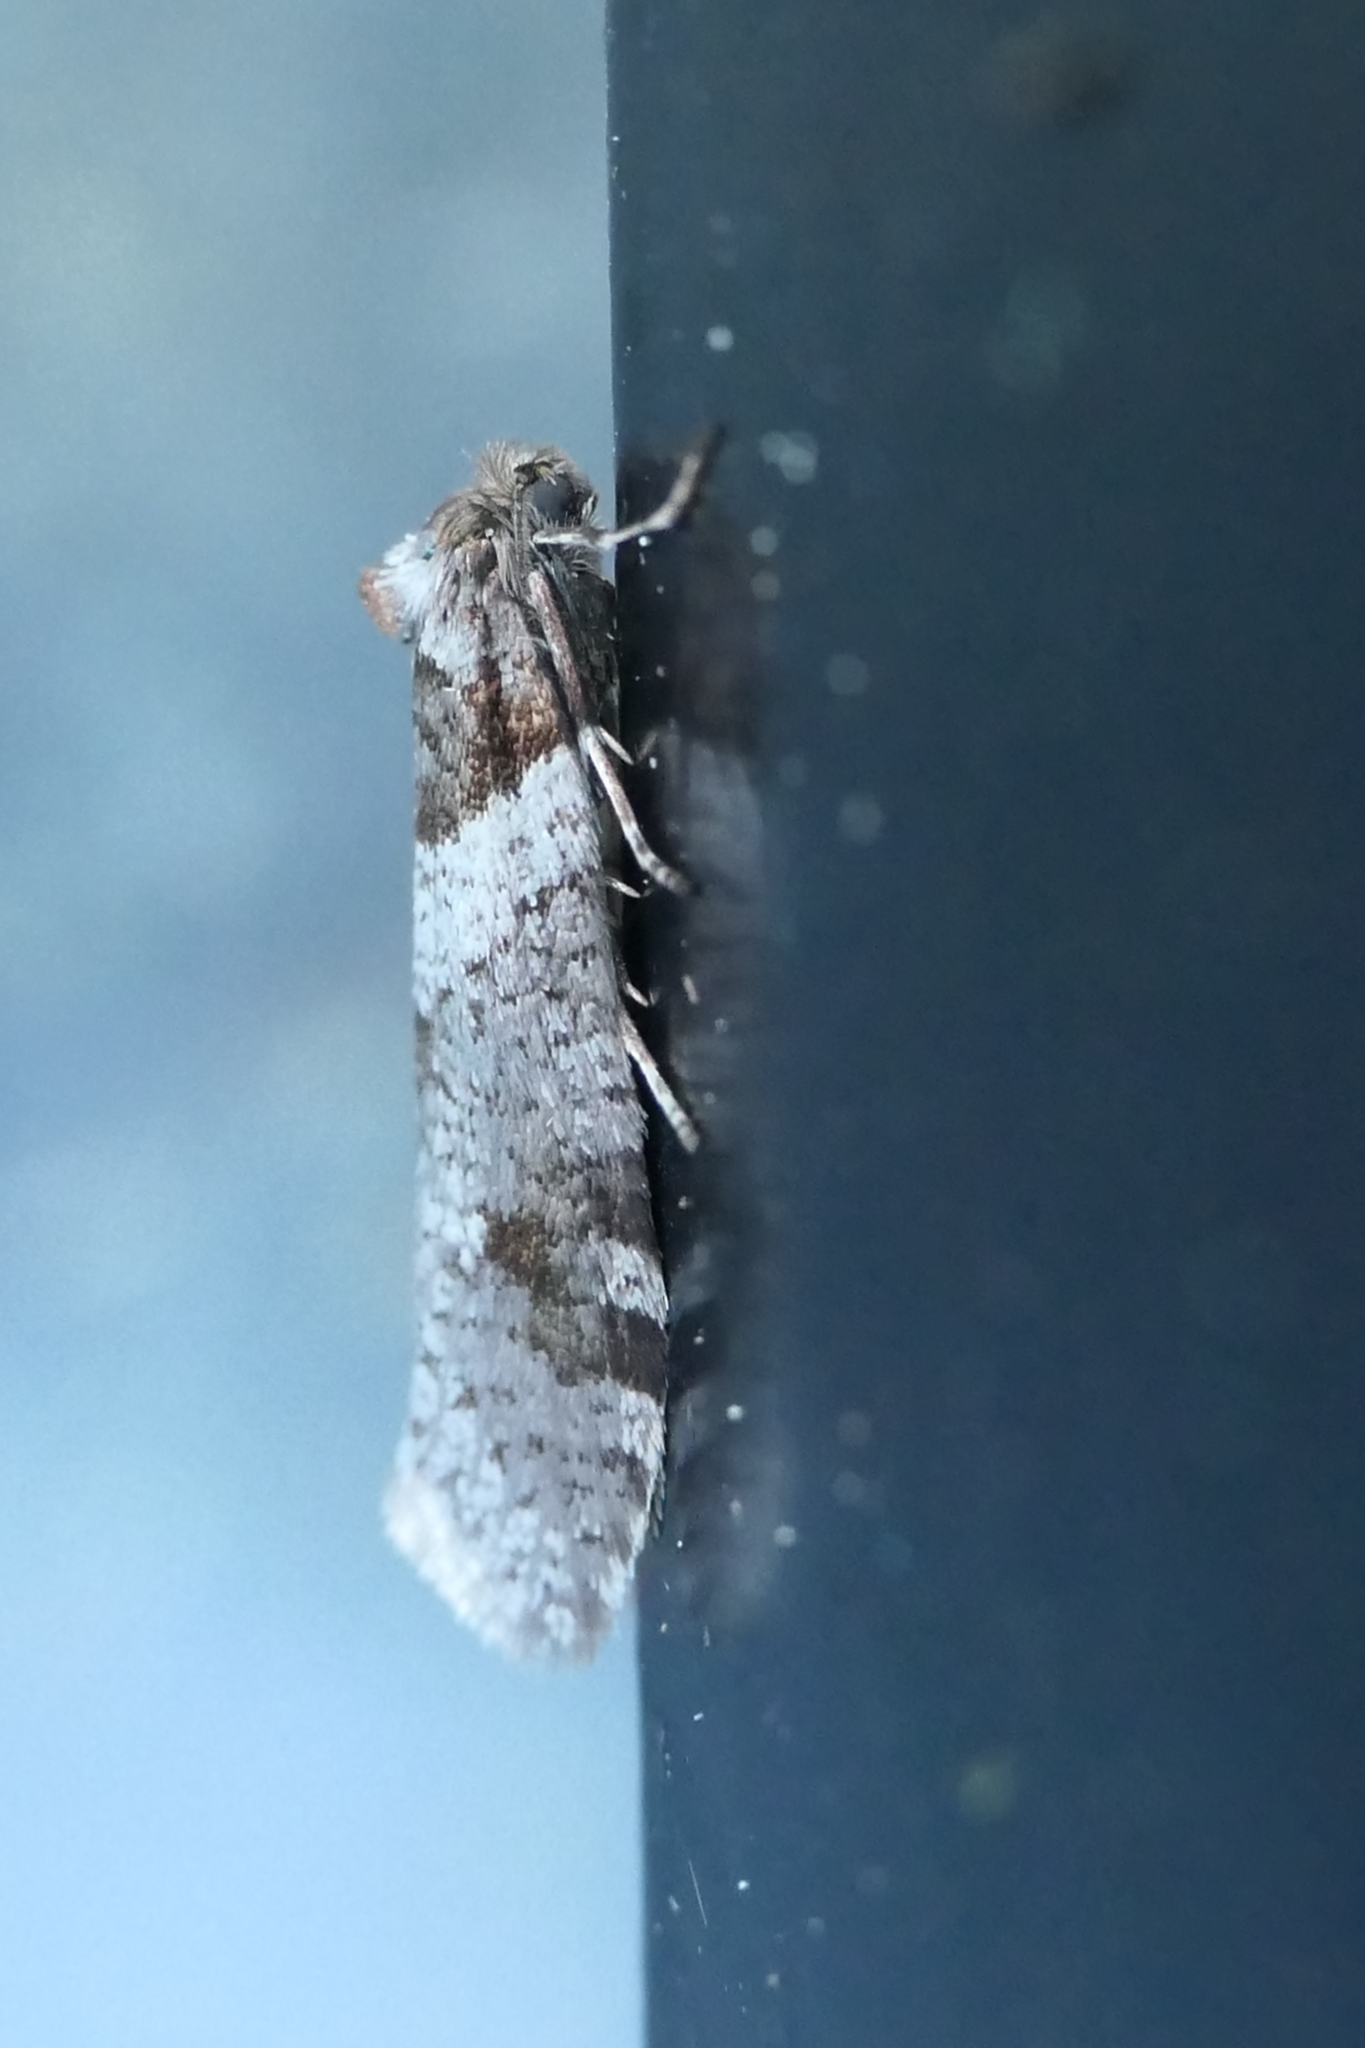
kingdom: Animalia
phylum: Arthropoda
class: Insecta
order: Lepidoptera
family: Psychidae
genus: Lepidoscia
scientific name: Lepidoscia heliochares
